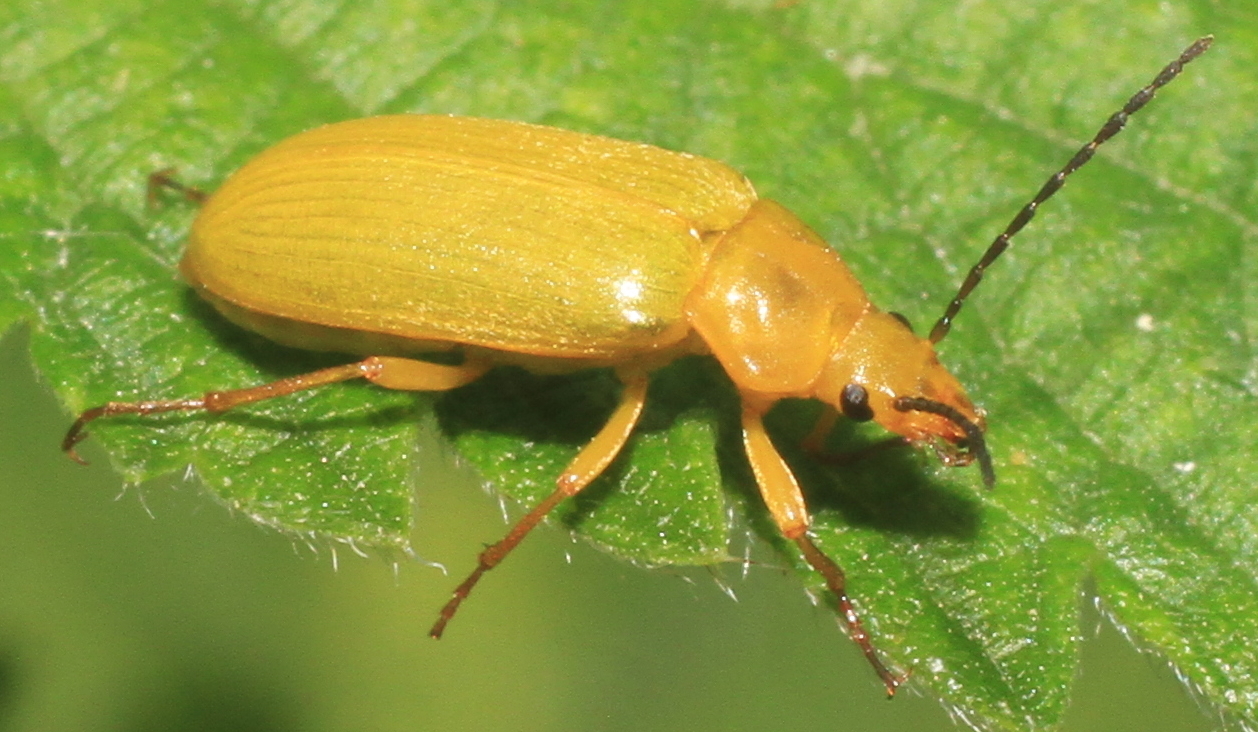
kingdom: Animalia
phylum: Arthropoda
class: Insecta
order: Coleoptera
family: Tenebrionidae
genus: Cteniopus
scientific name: Cteniopus sulphureus
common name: Sulphur beetle
